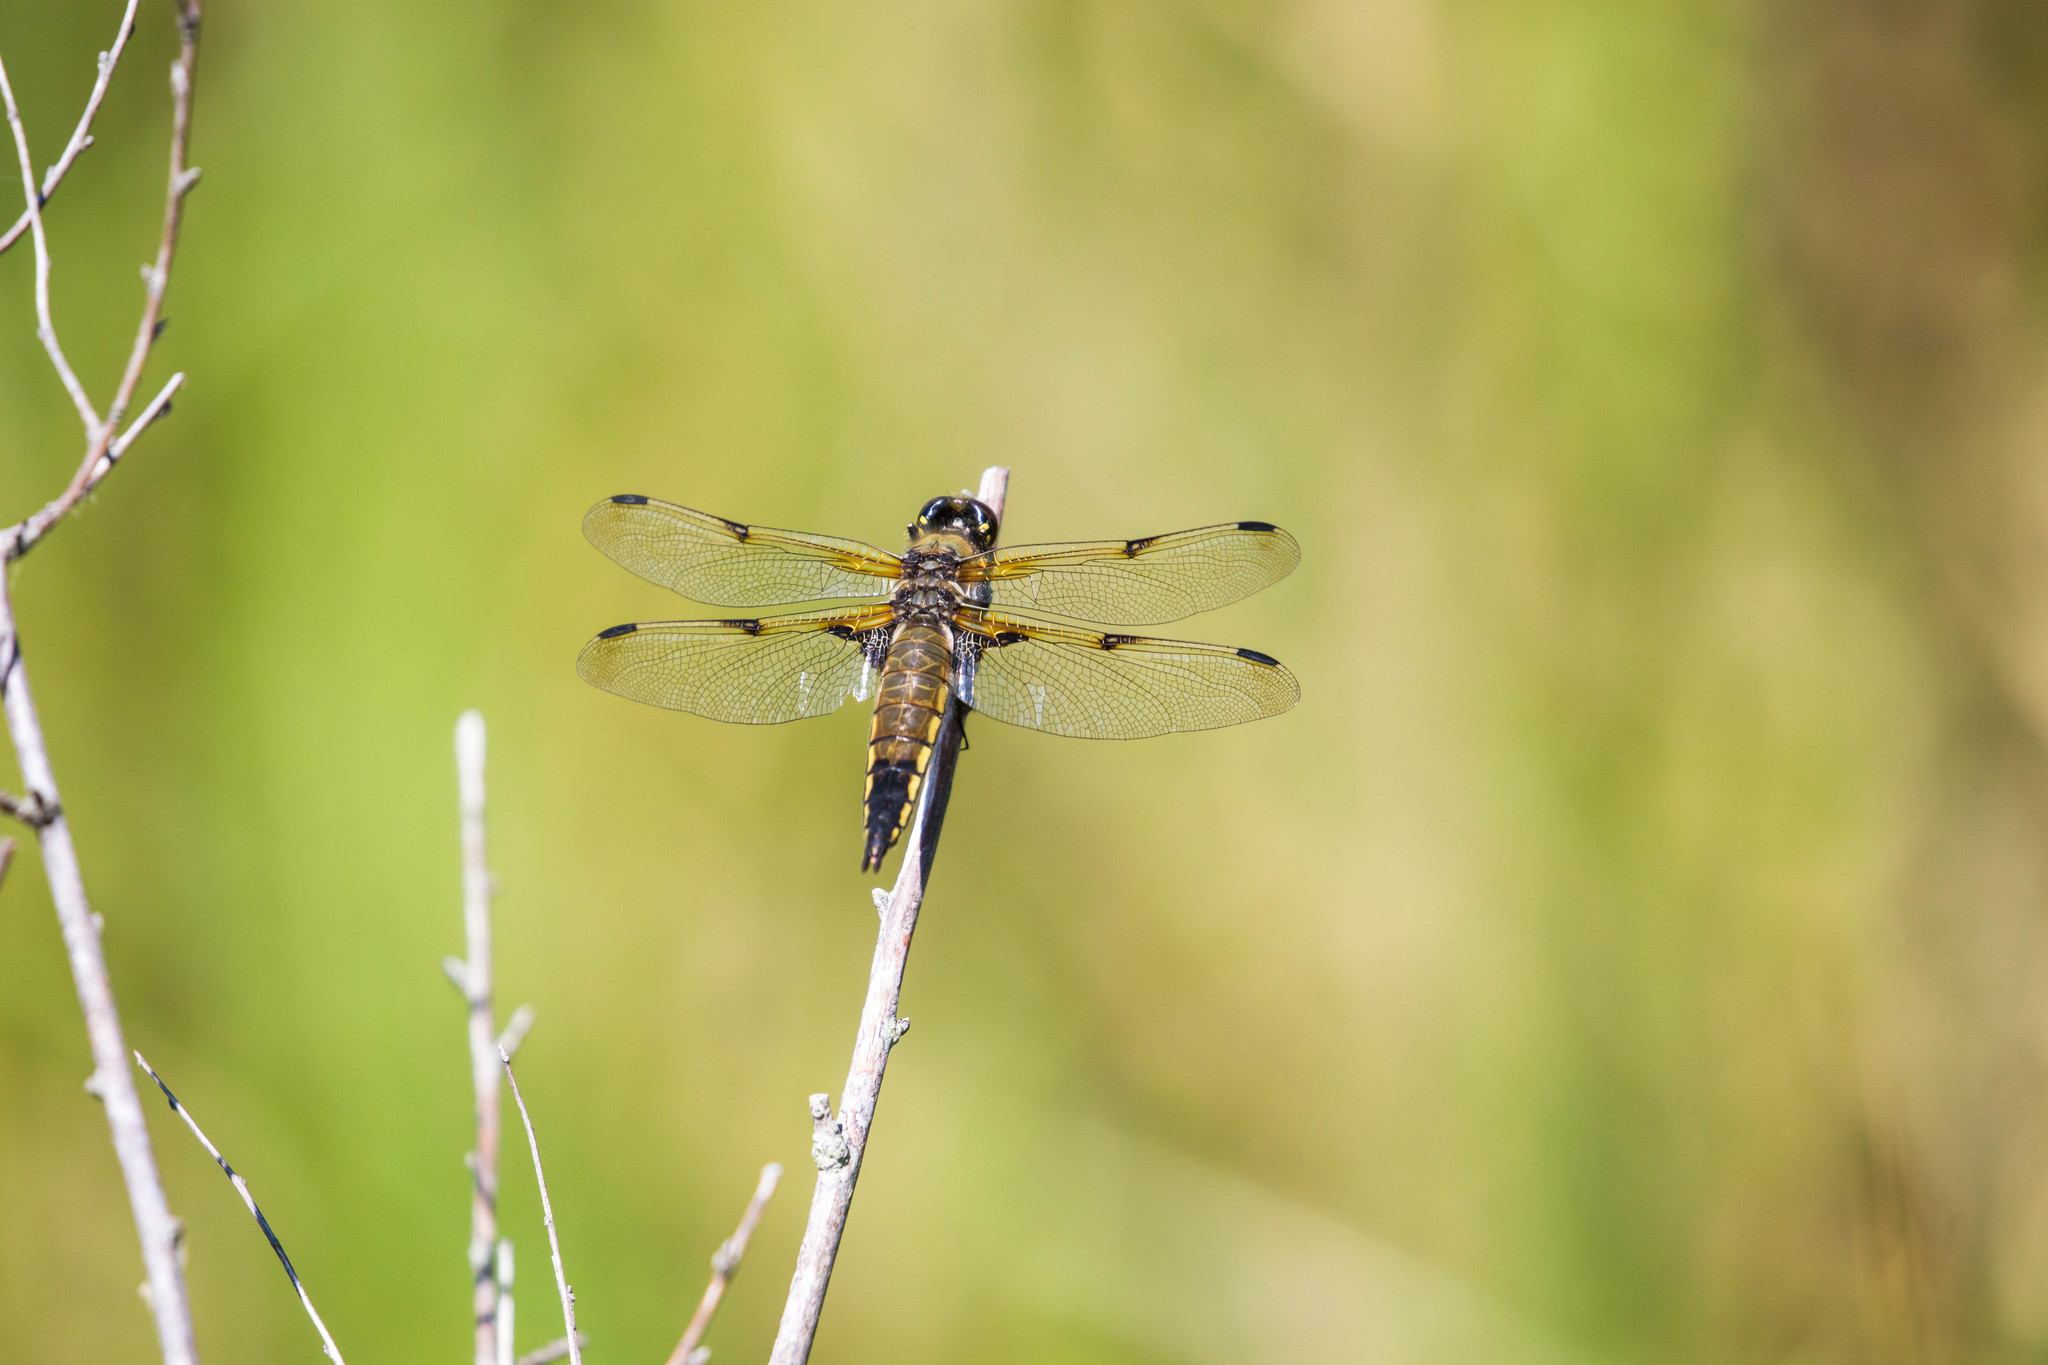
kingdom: Animalia
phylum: Arthropoda
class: Insecta
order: Odonata
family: Libellulidae
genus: Libellula
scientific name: Libellula quadrimaculata
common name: Four-spotted chaser
